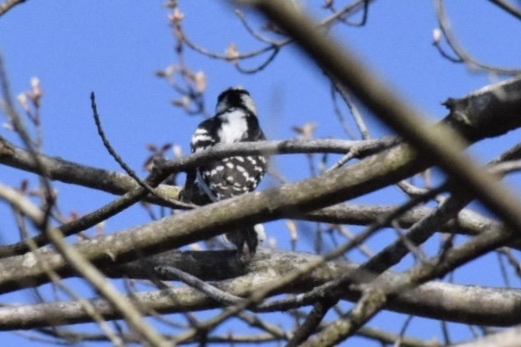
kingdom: Animalia
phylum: Chordata
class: Aves
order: Piciformes
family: Picidae
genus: Dryobates
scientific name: Dryobates pubescens
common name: Downy woodpecker
